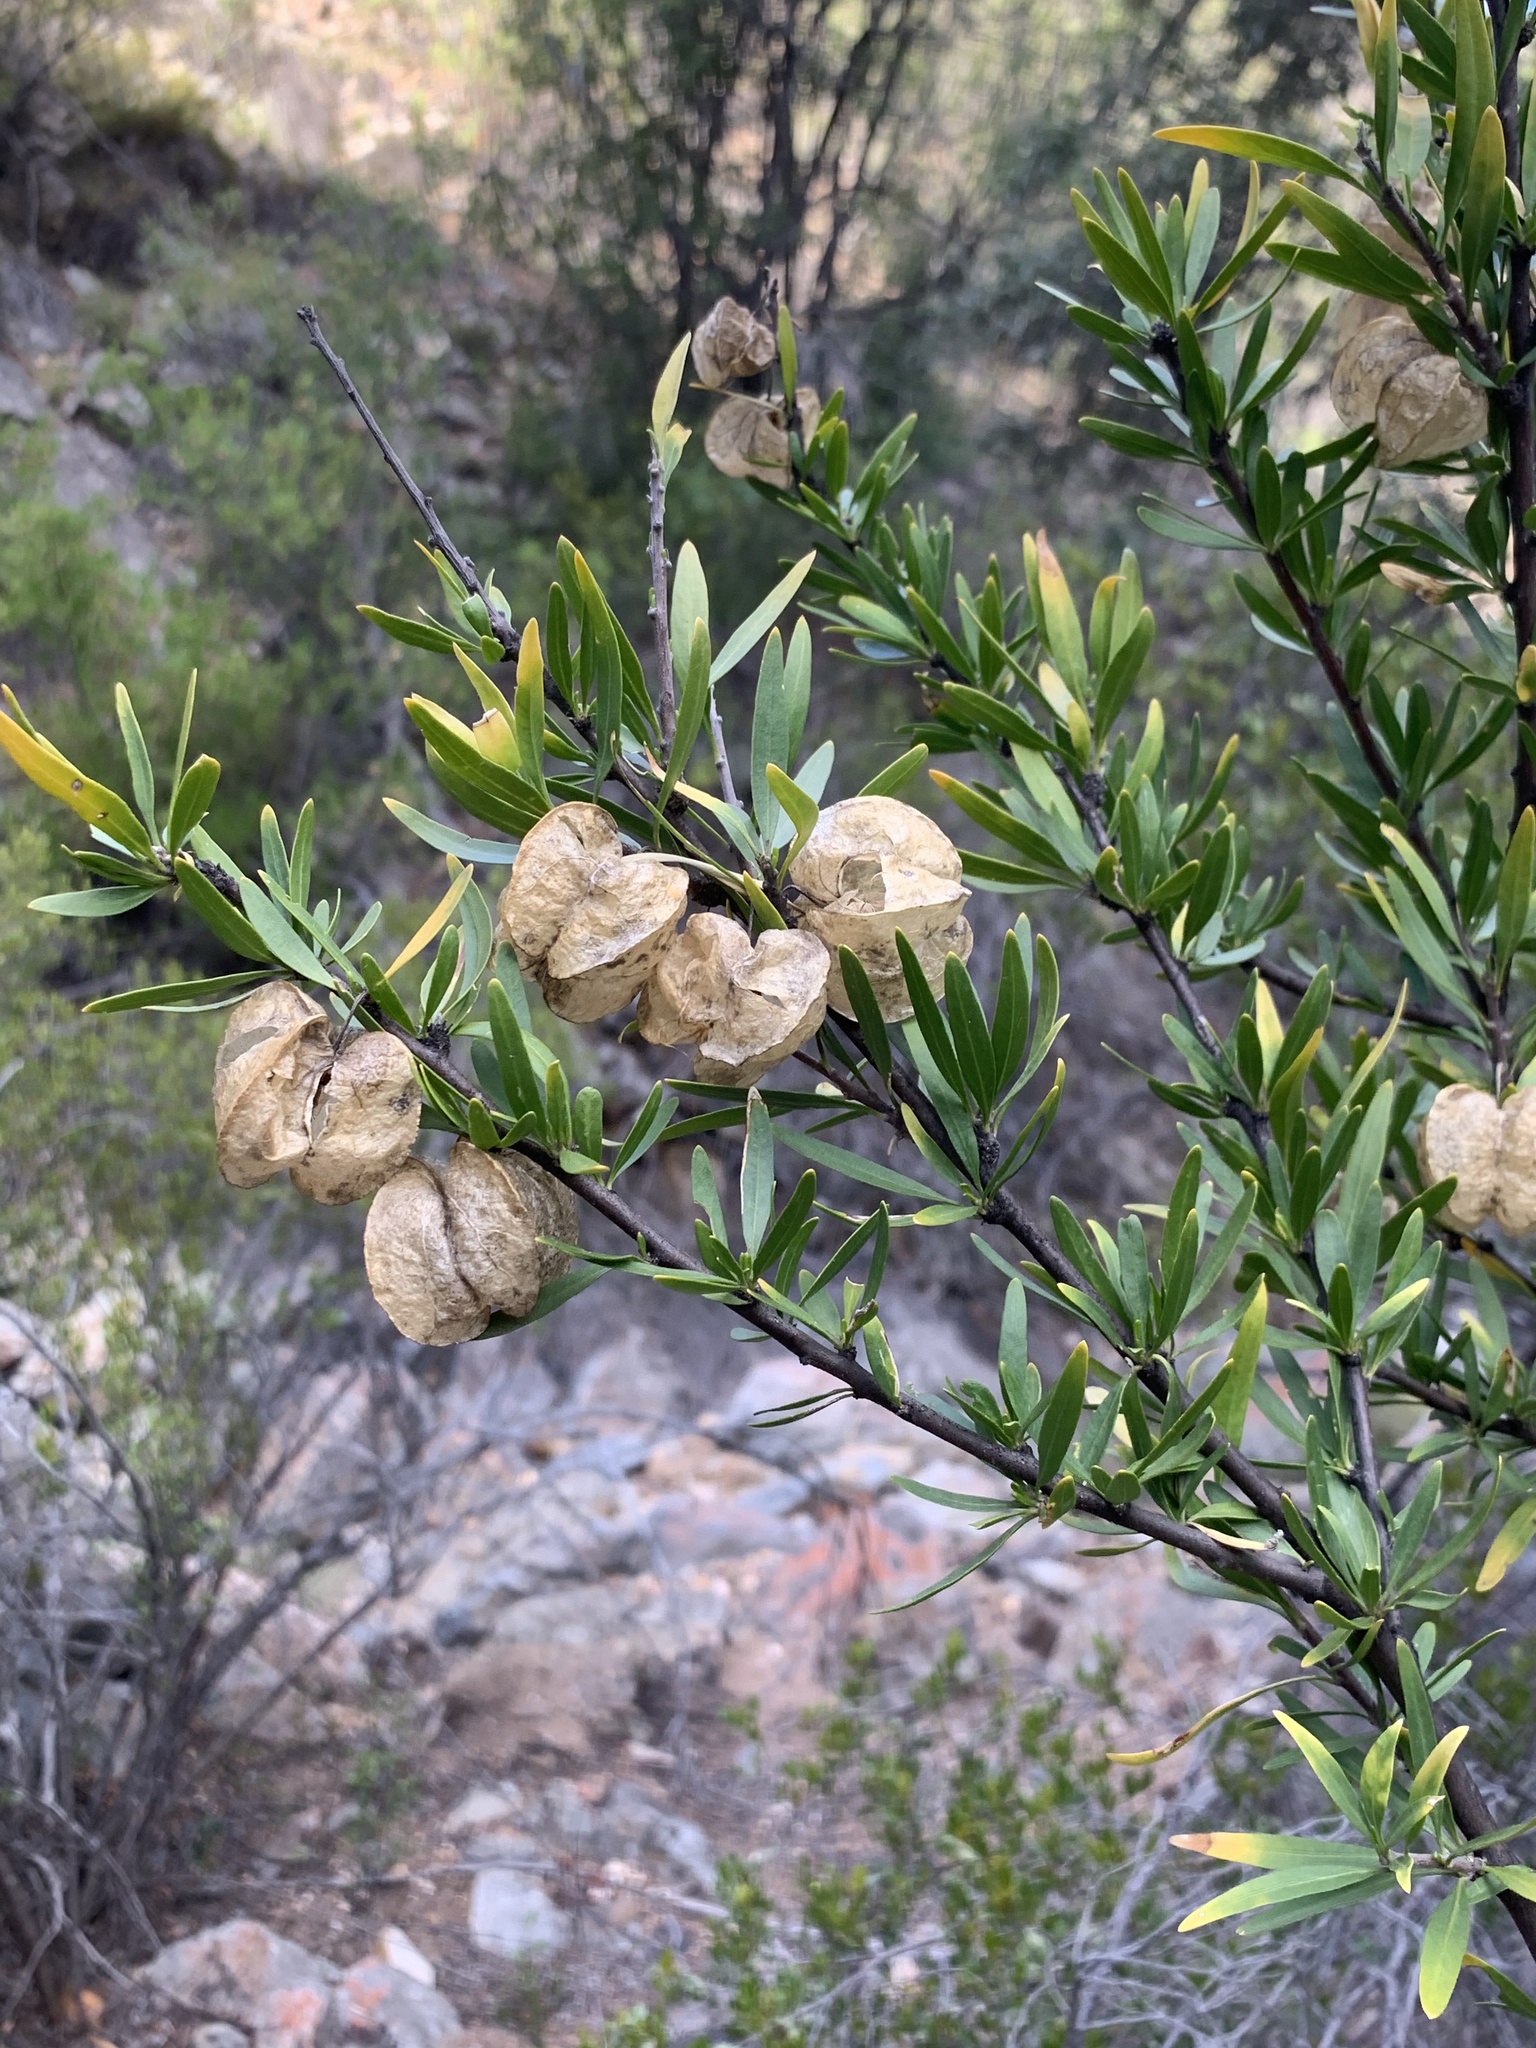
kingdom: Plantae
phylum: Tracheophyta
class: Magnoliopsida
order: Sapindales
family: Meliaceae
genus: Nymania
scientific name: Nymania capensis
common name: Chinese lantern tree
